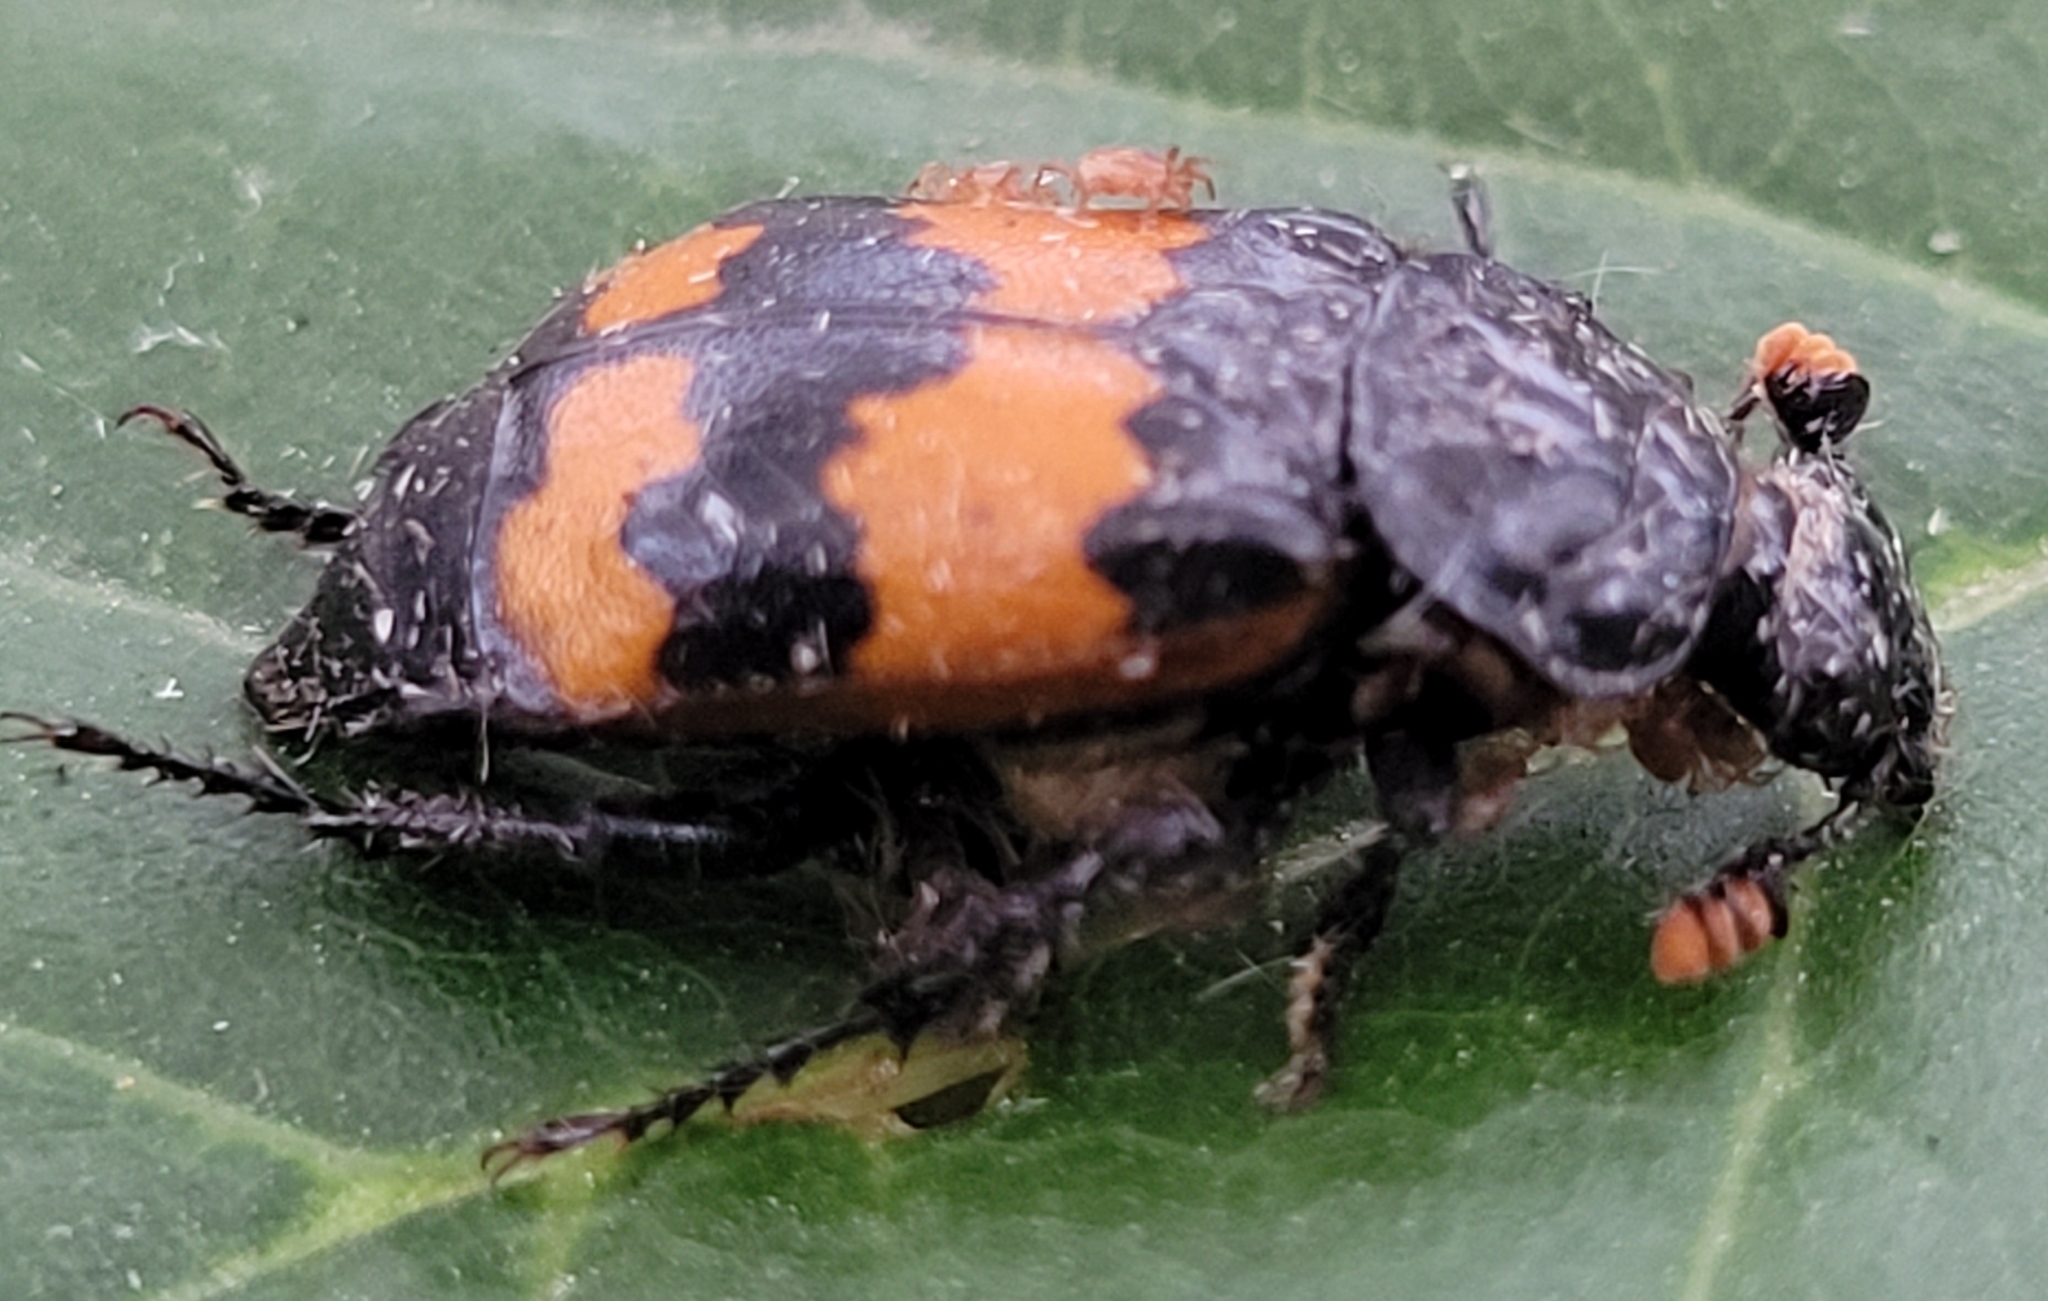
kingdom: Animalia
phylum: Arthropoda
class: Insecta
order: Coleoptera
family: Staphylinidae
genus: Nicrophorus
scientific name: Nicrophorus hybridus
